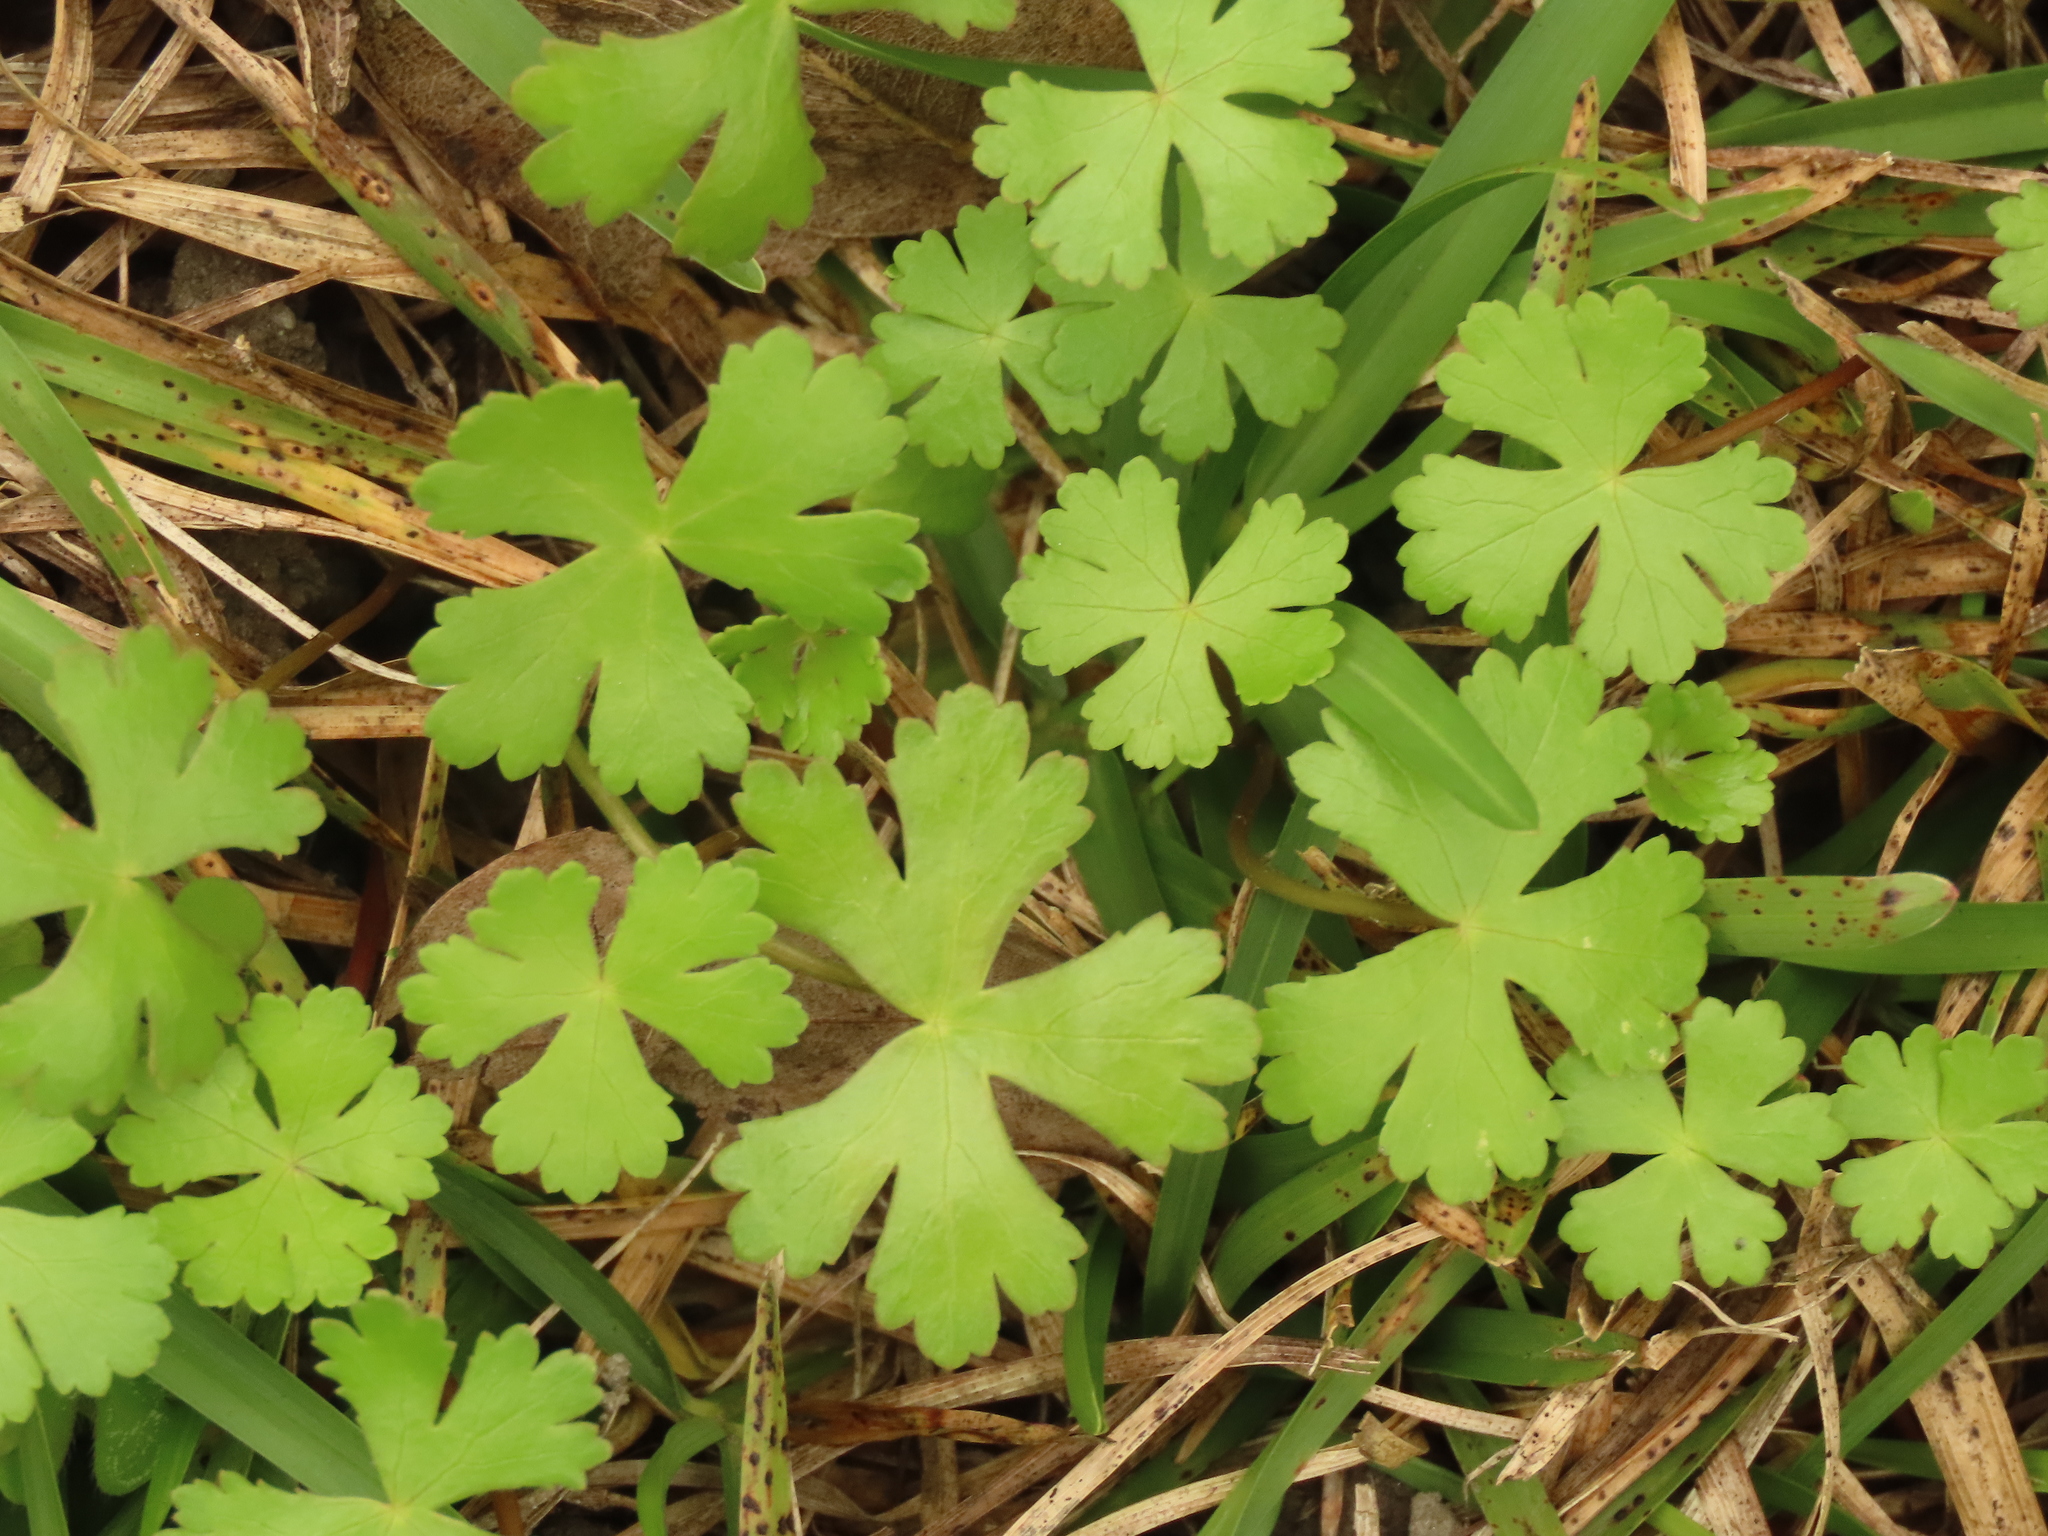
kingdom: Plantae
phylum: Tracheophyta
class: Magnoliopsida
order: Apiales
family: Araliaceae
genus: Hydrocotyle
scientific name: Hydrocotyle batrachium
